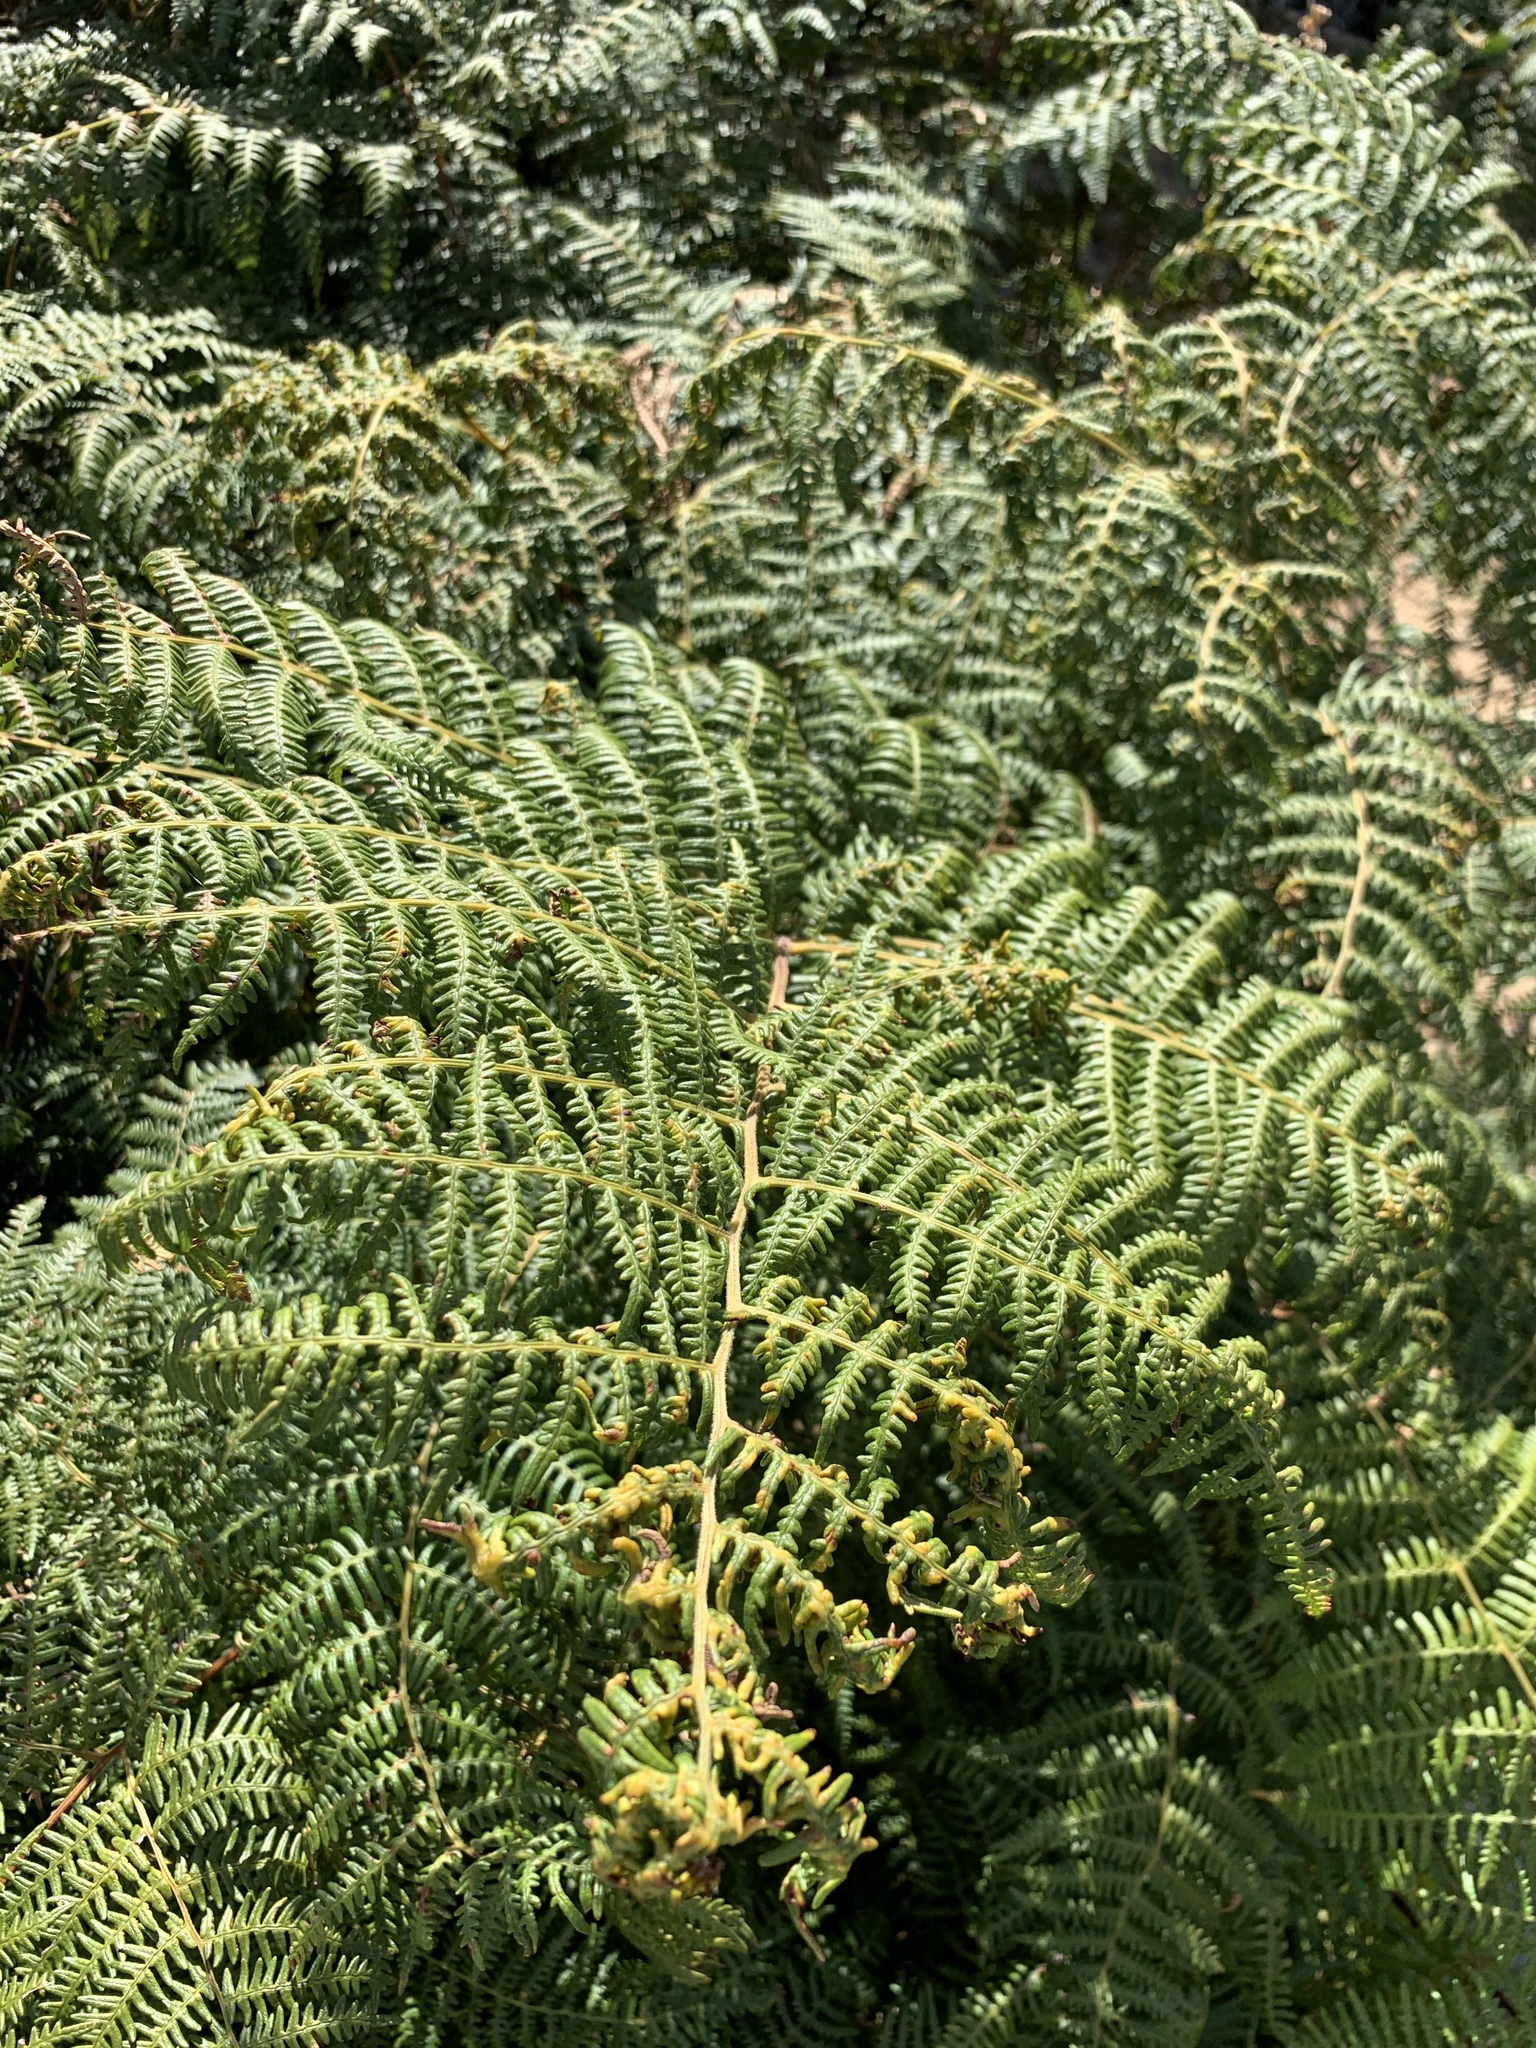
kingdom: Plantae
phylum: Tracheophyta
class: Polypodiopsida
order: Polypodiales
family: Dennstaedtiaceae
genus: Pteridium
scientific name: Pteridium aquilinum
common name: Bracken
